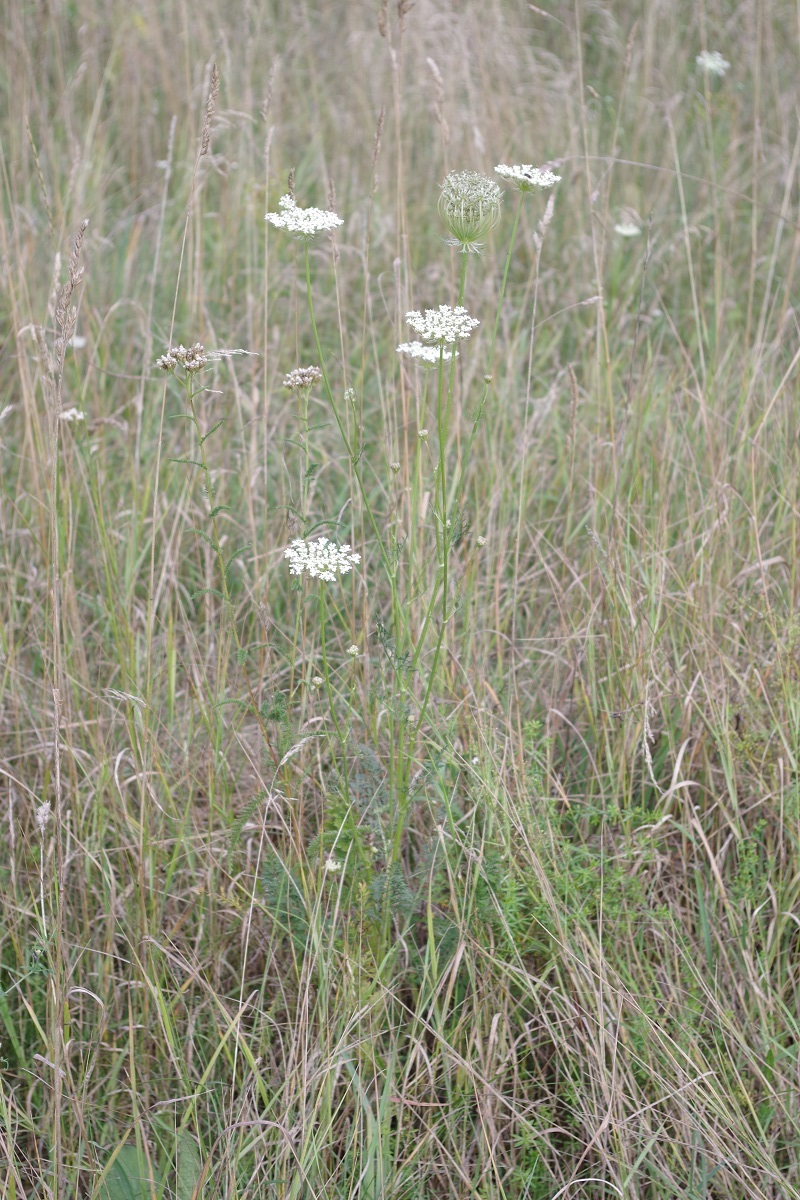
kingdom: Plantae
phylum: Tracheophyta
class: Magnoliopsida
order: Apiales
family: Apiaceae
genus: Daucus
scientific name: Daucus carota
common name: Wild carrot
